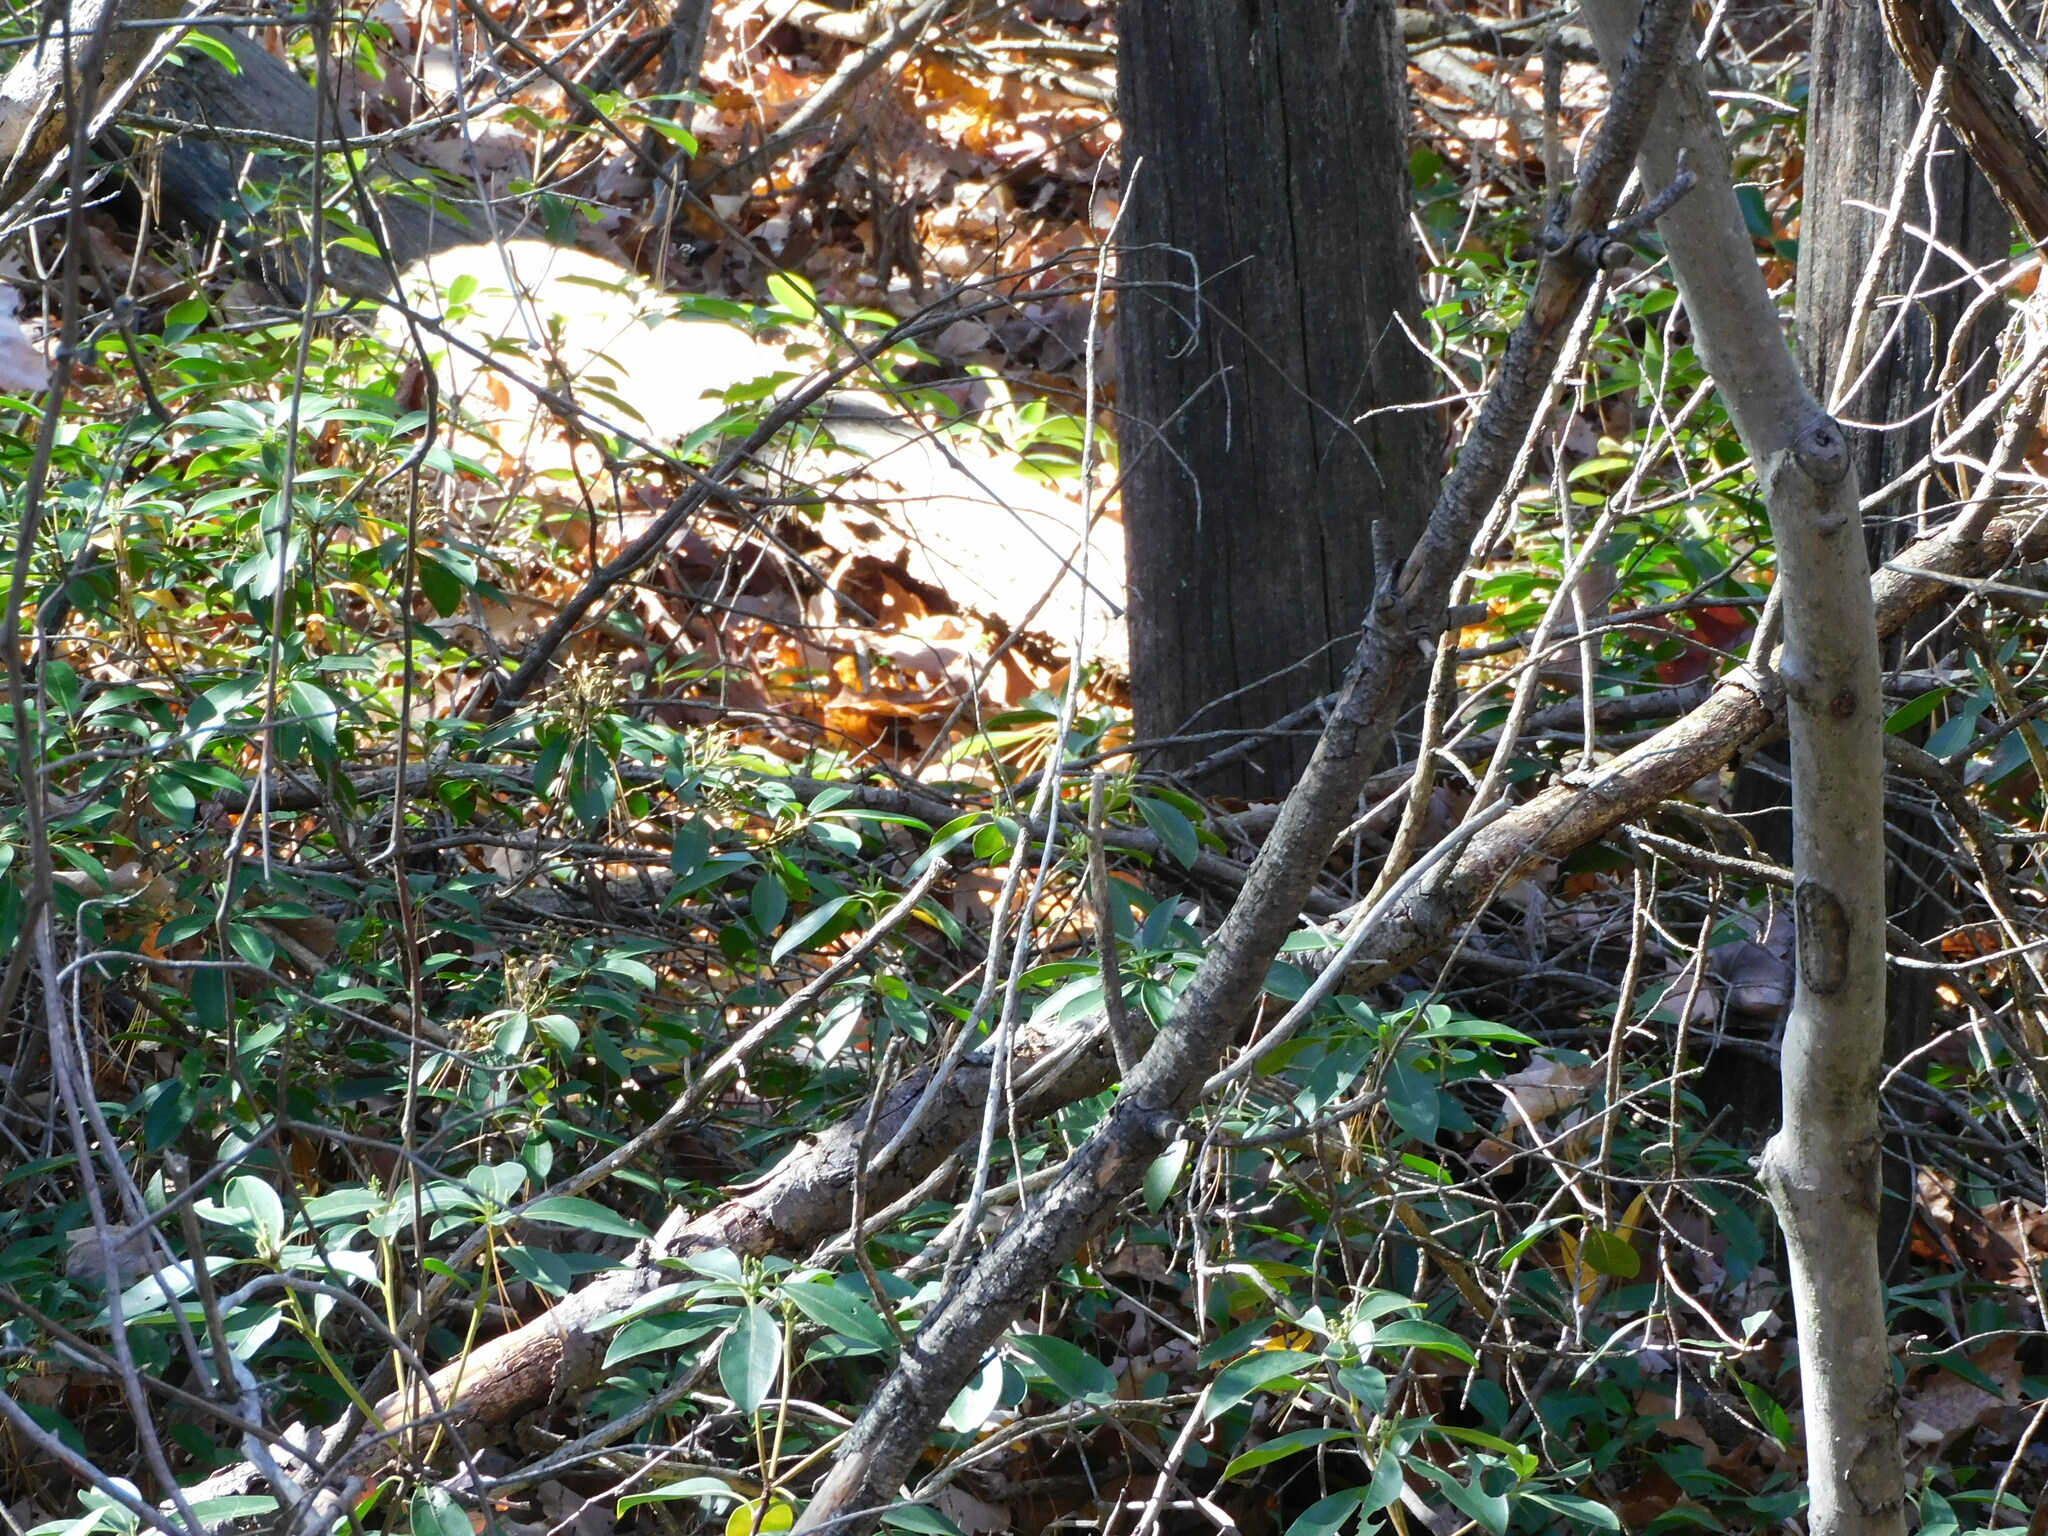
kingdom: Plantae
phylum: Tracheophyta
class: Magnoliopsida
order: Ericales
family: Ericaceae
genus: Kalmia
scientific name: Kalmia latifolia
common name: Mountain-laurel
